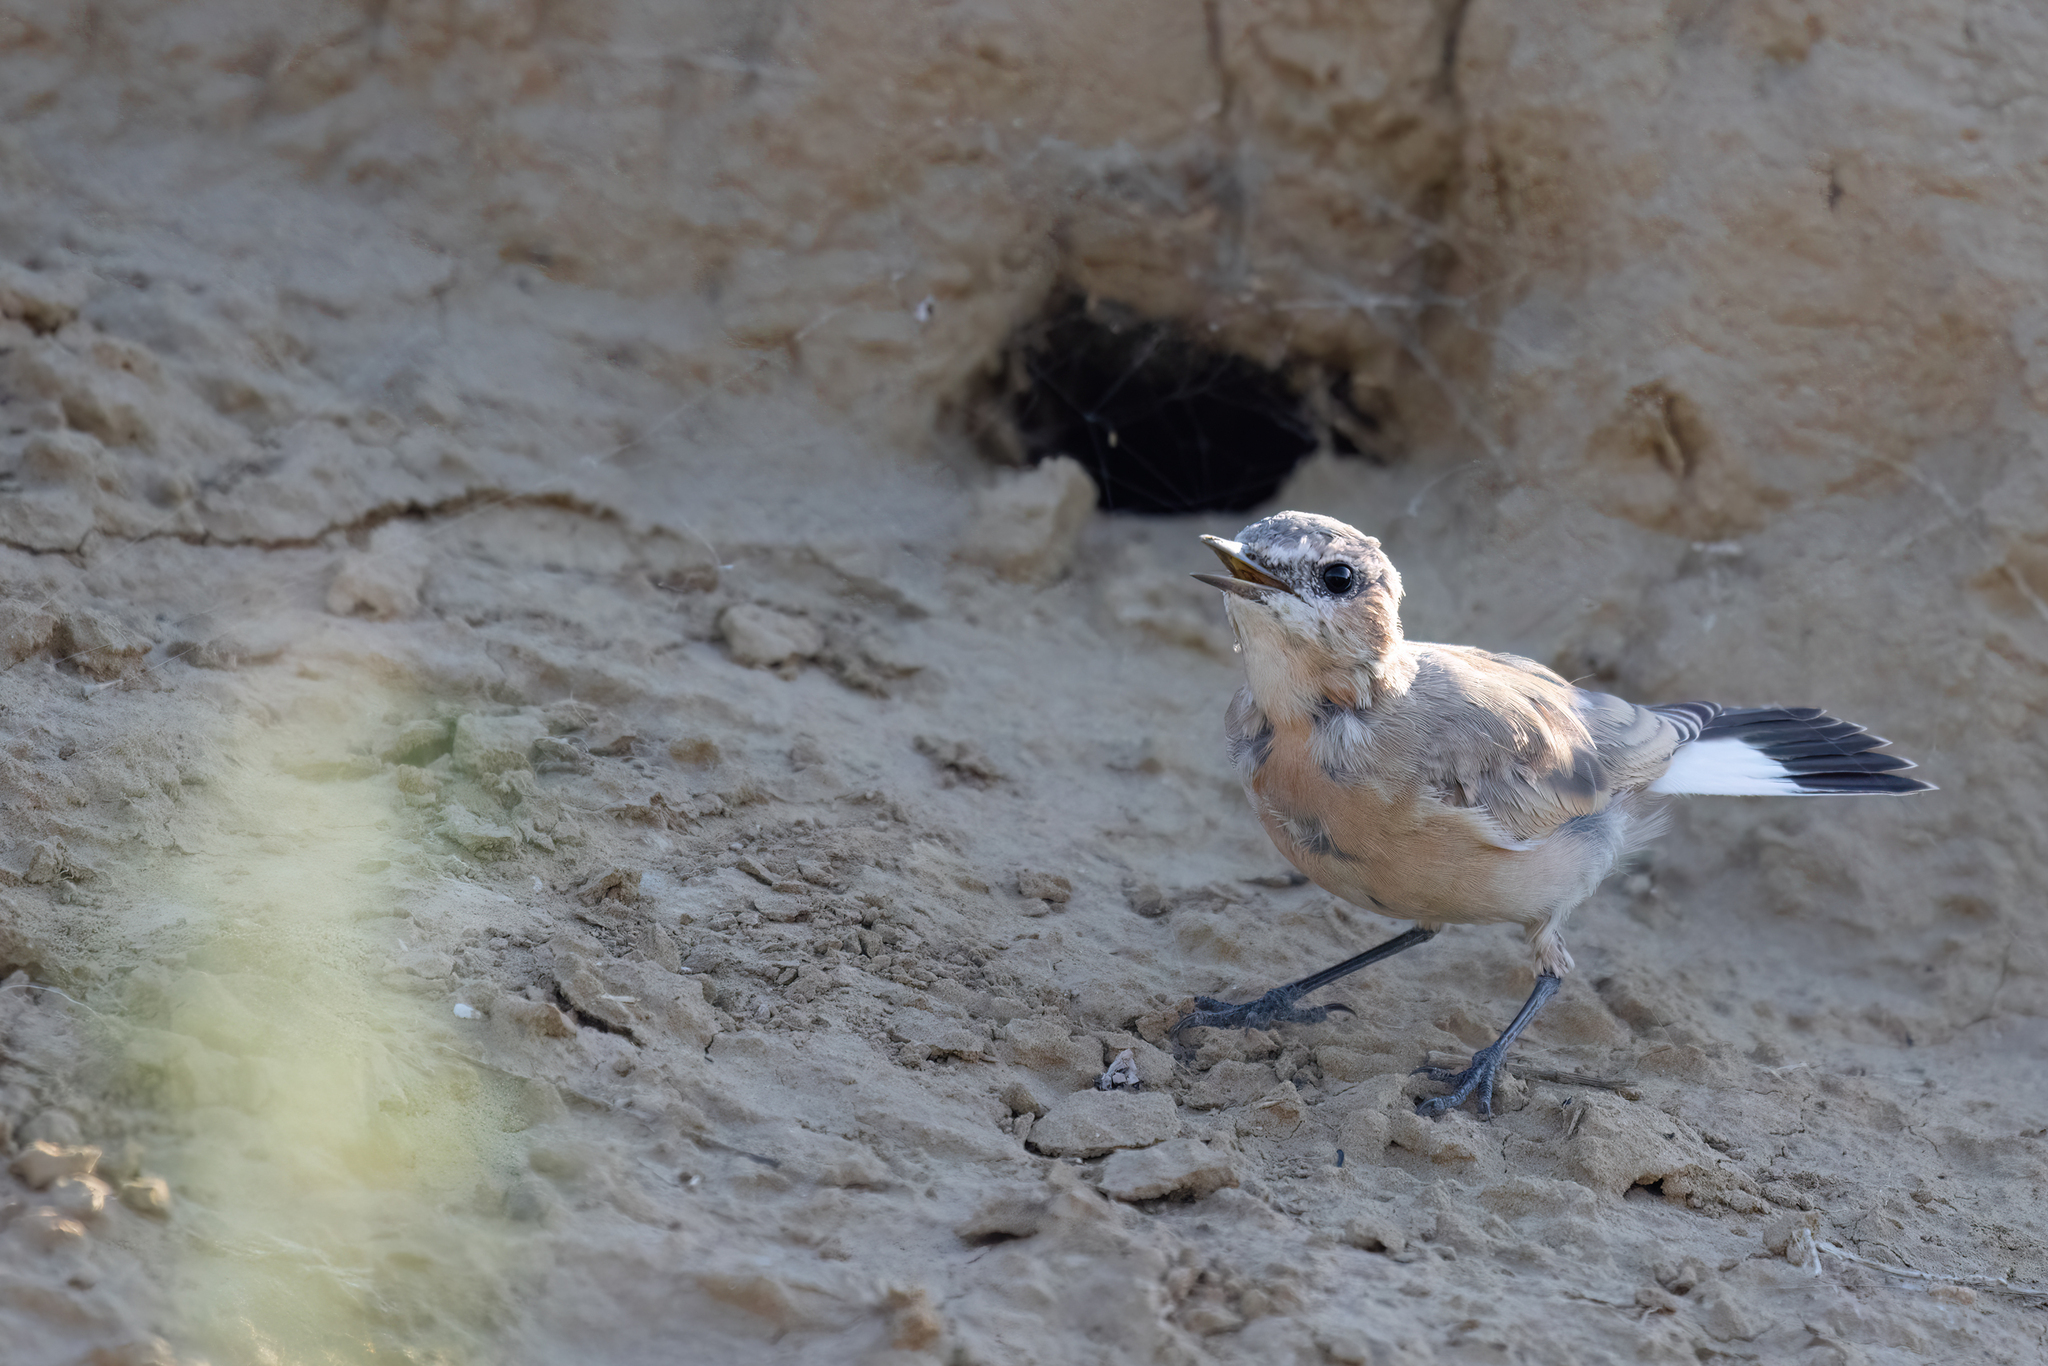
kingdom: Animalia
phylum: Chordata
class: Aves
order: Passeriformes
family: Muscicapidae
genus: Oenanthe
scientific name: Oenanthe isabellina
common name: Isabelline wheatear
